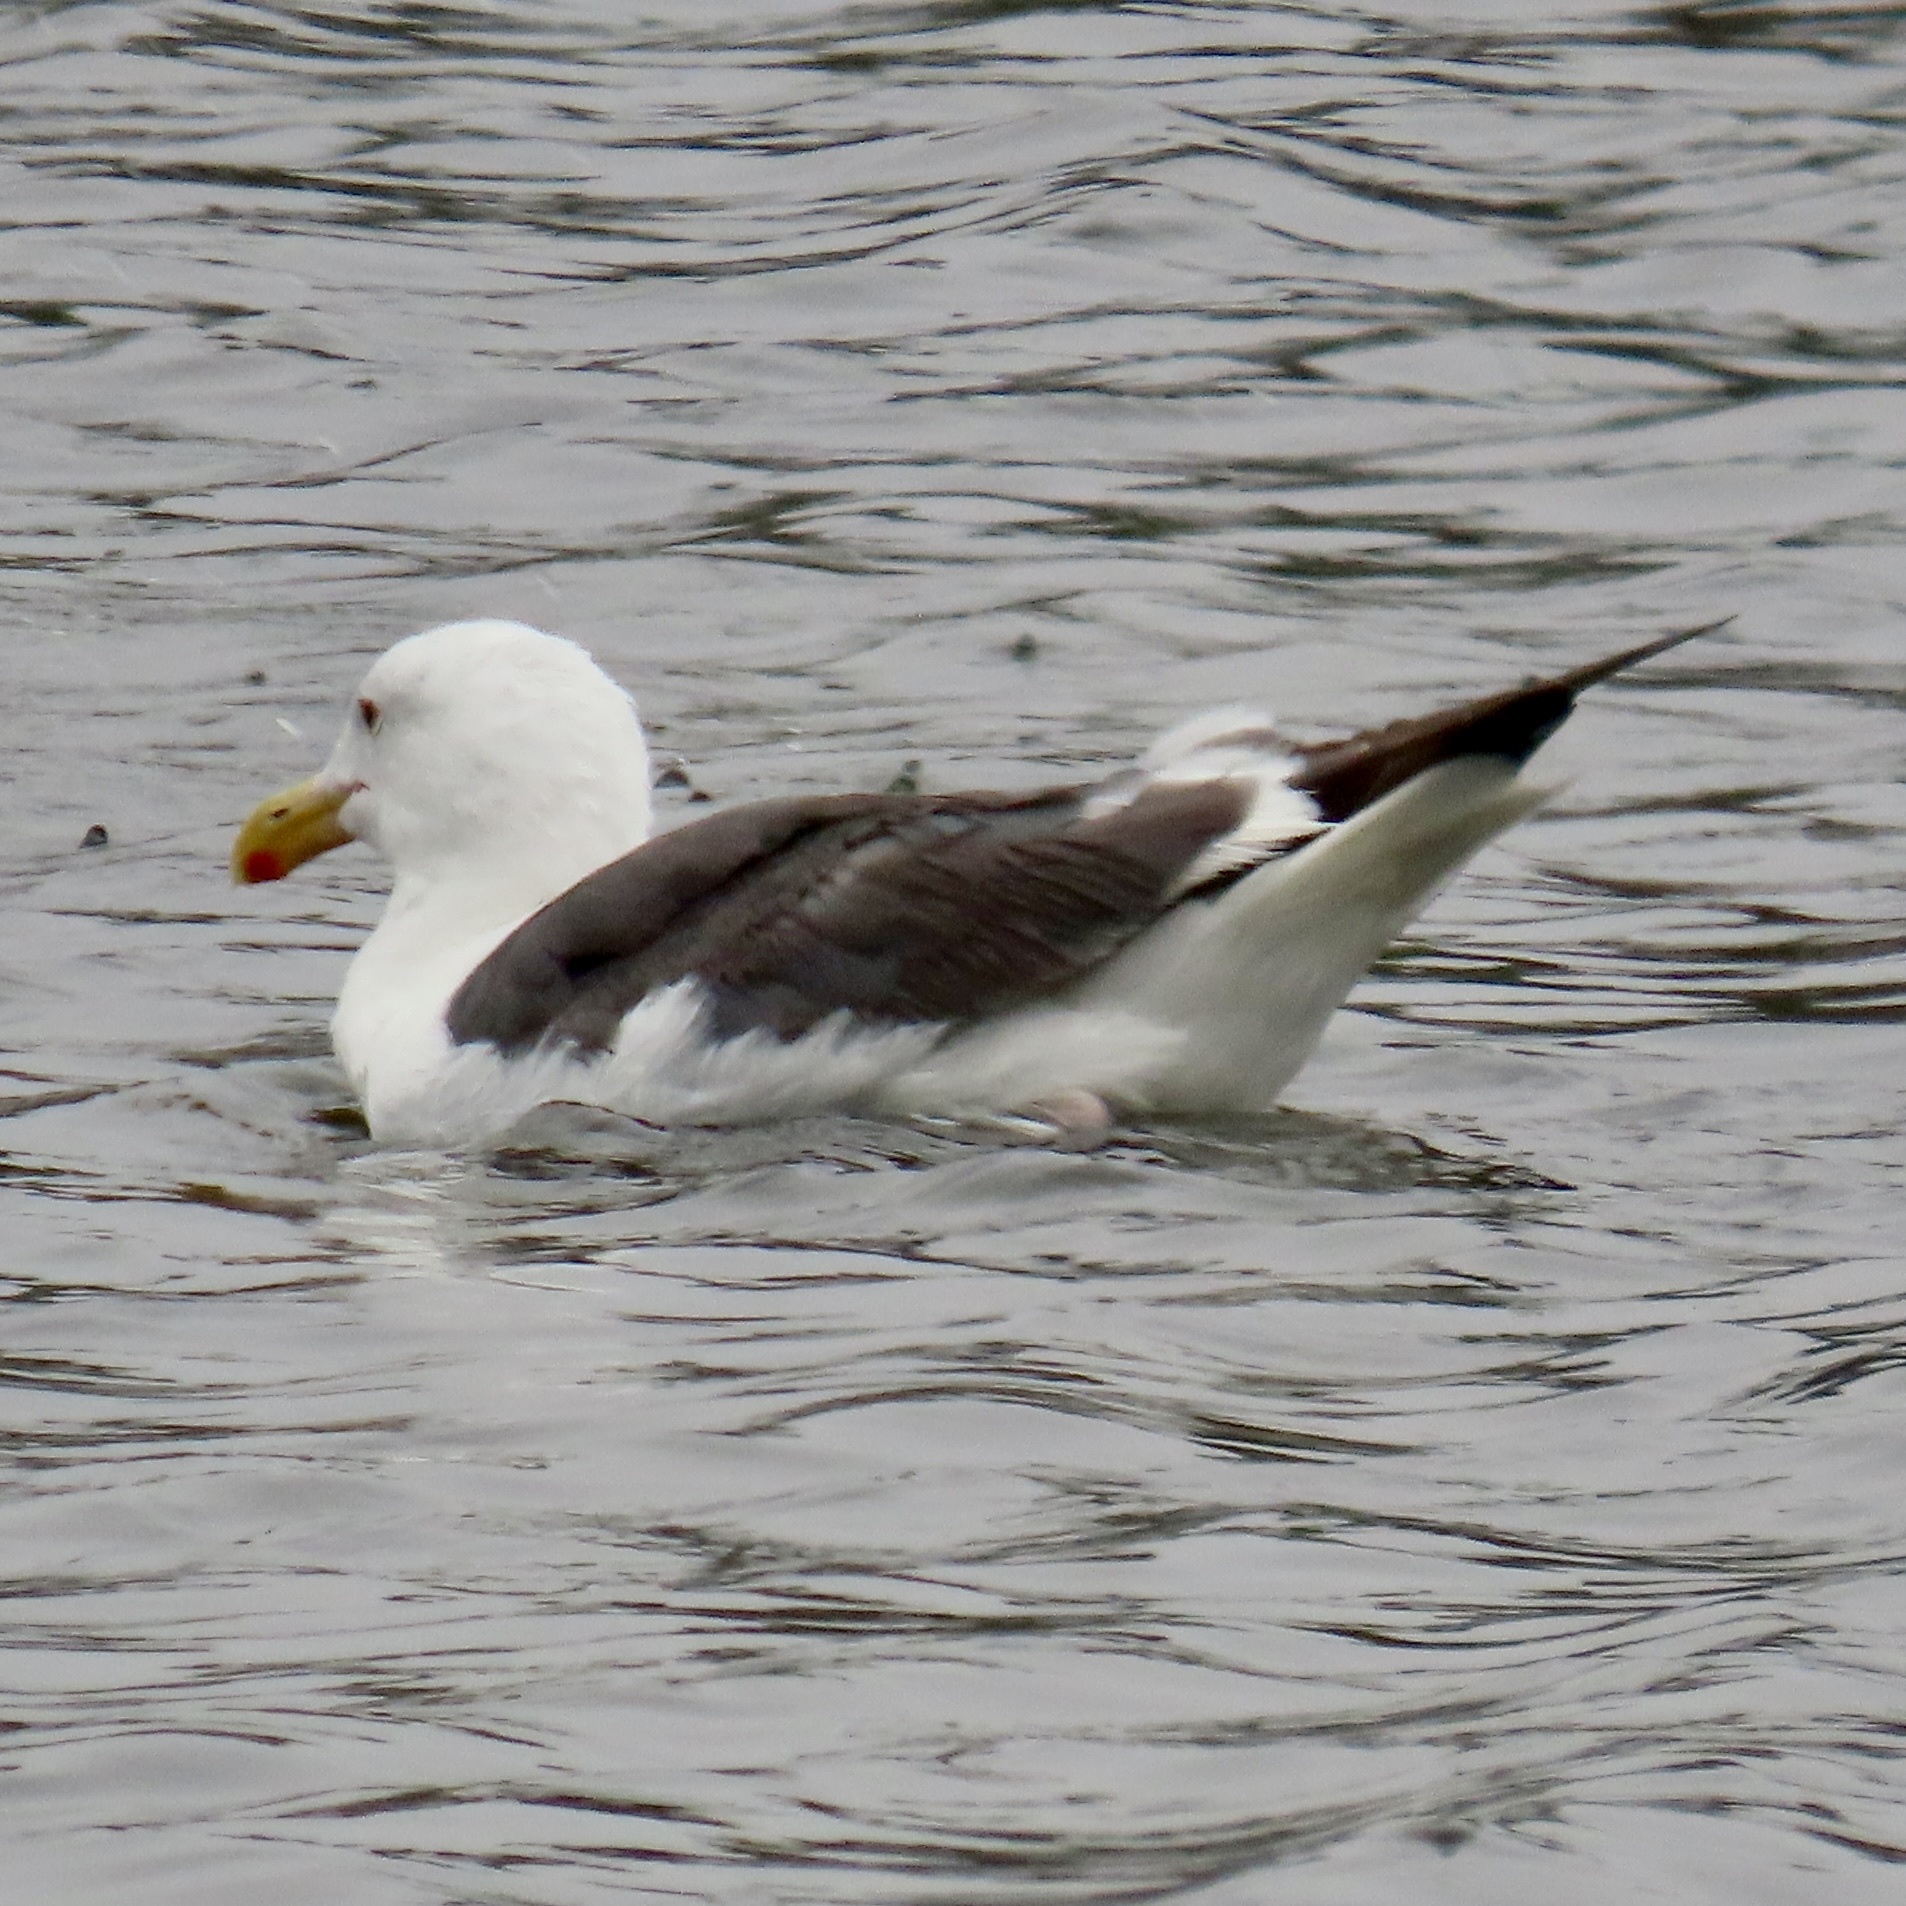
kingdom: Animalia
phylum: Chordata
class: Aves
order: Charadriiformes
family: Laridae
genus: Larus
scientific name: Larus occidentalis
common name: Western gull
